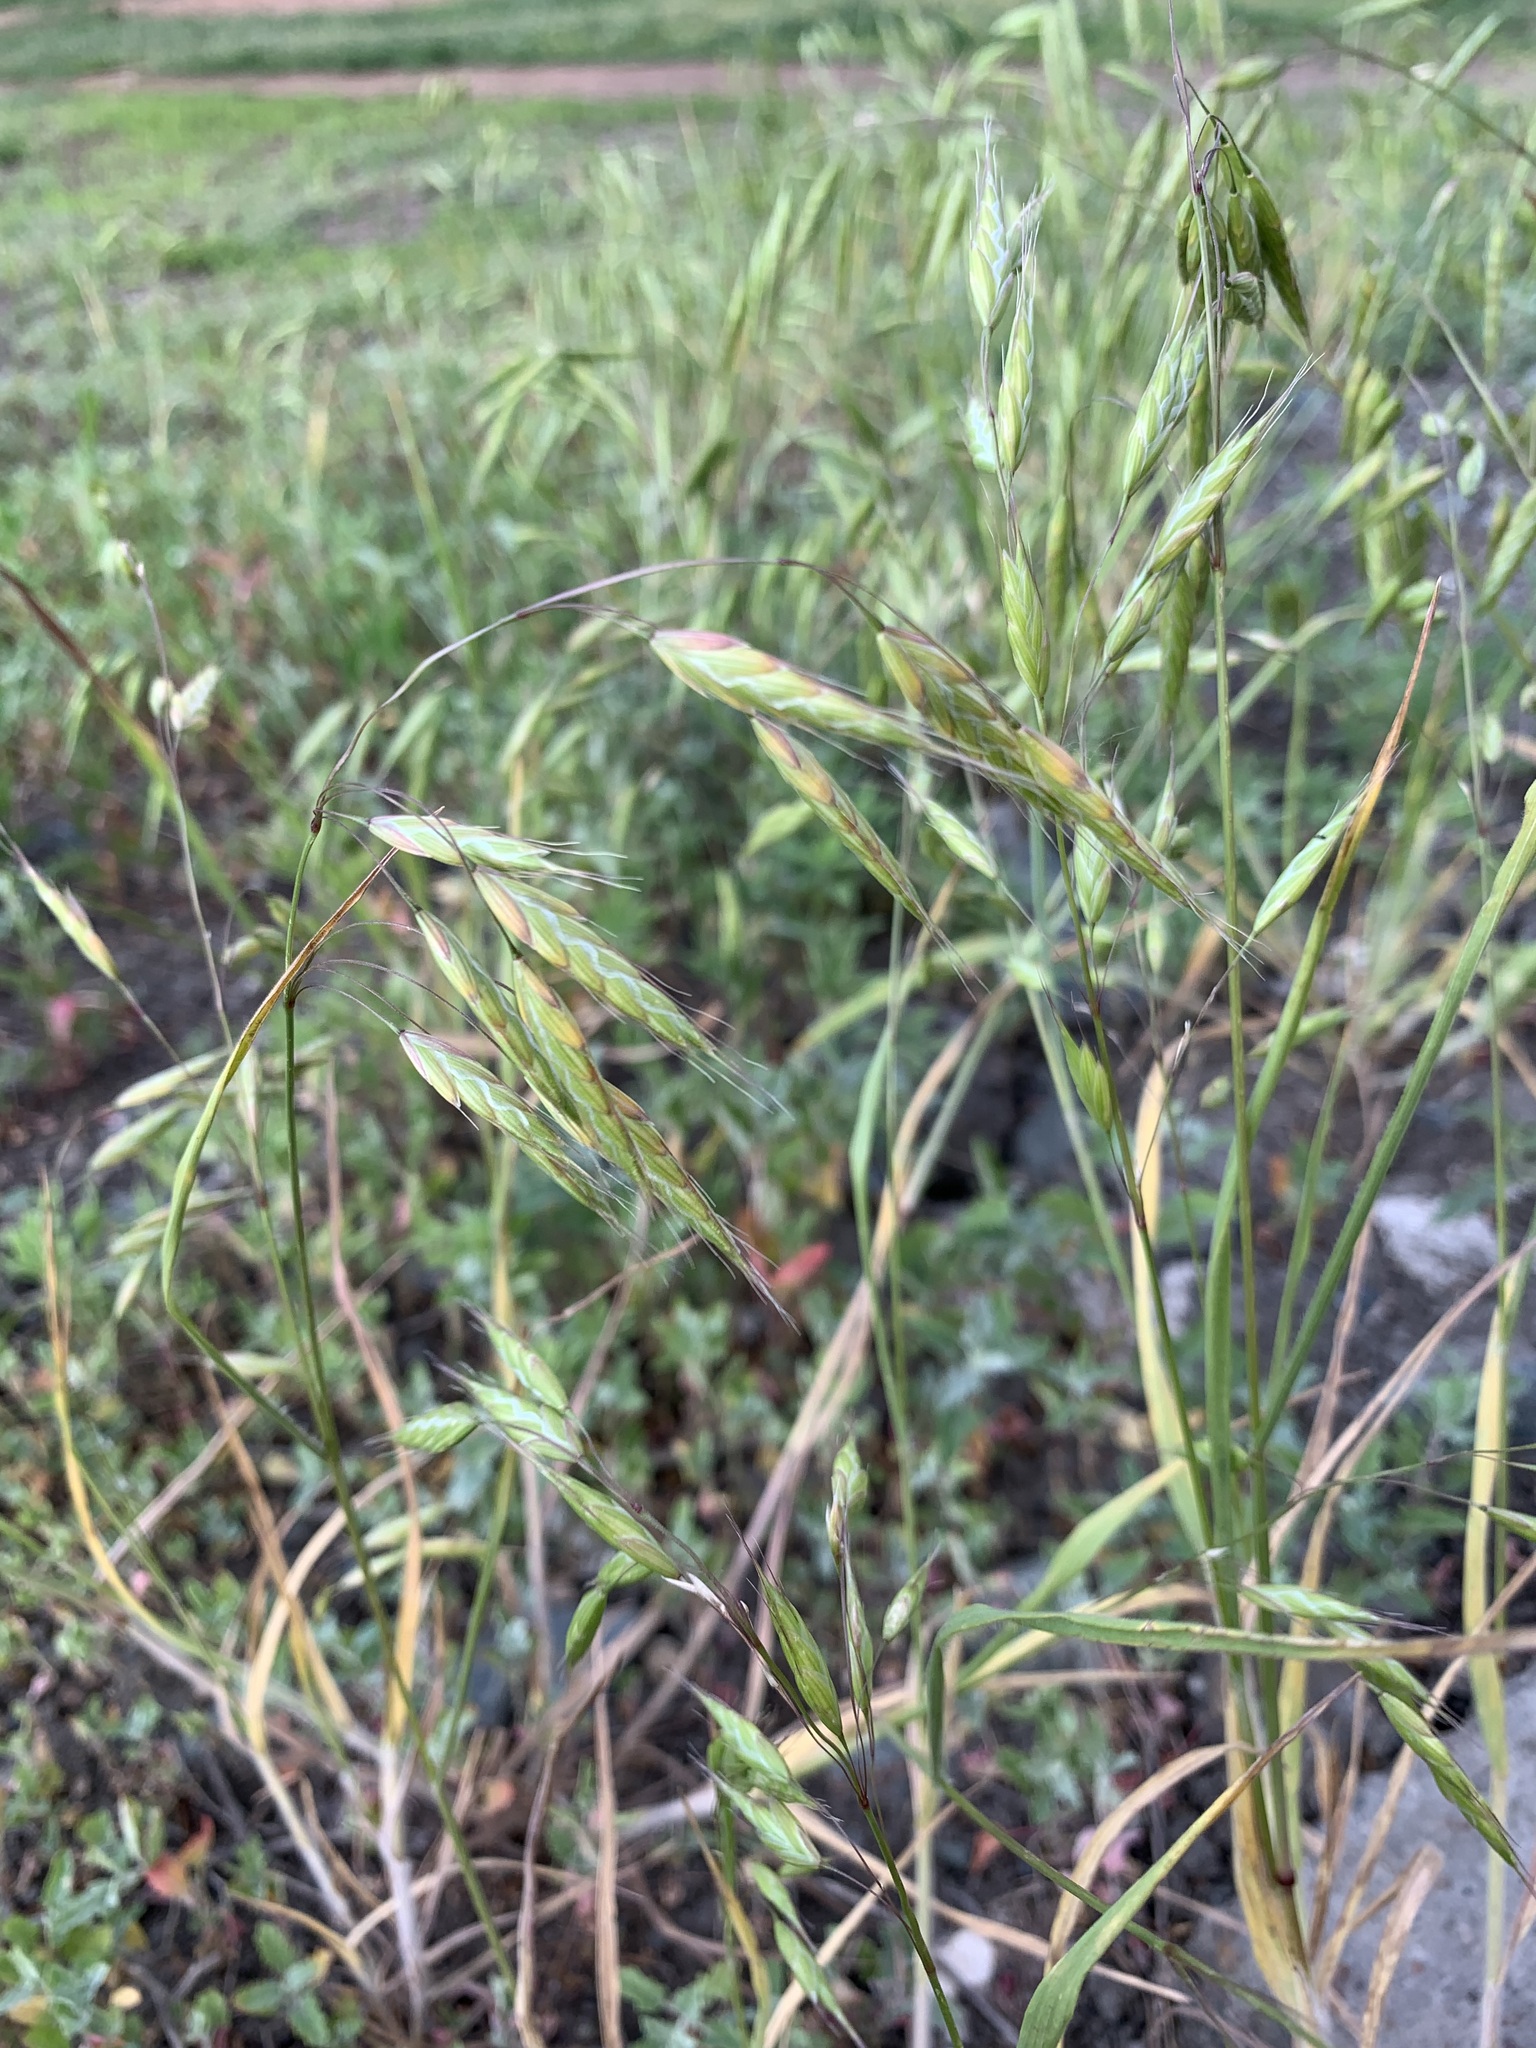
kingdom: Plantae
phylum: Tracheophyta
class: Liliopsida
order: Poales
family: Poaceae
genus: Bromus
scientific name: Bromus squarrosus
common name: Corn brome
